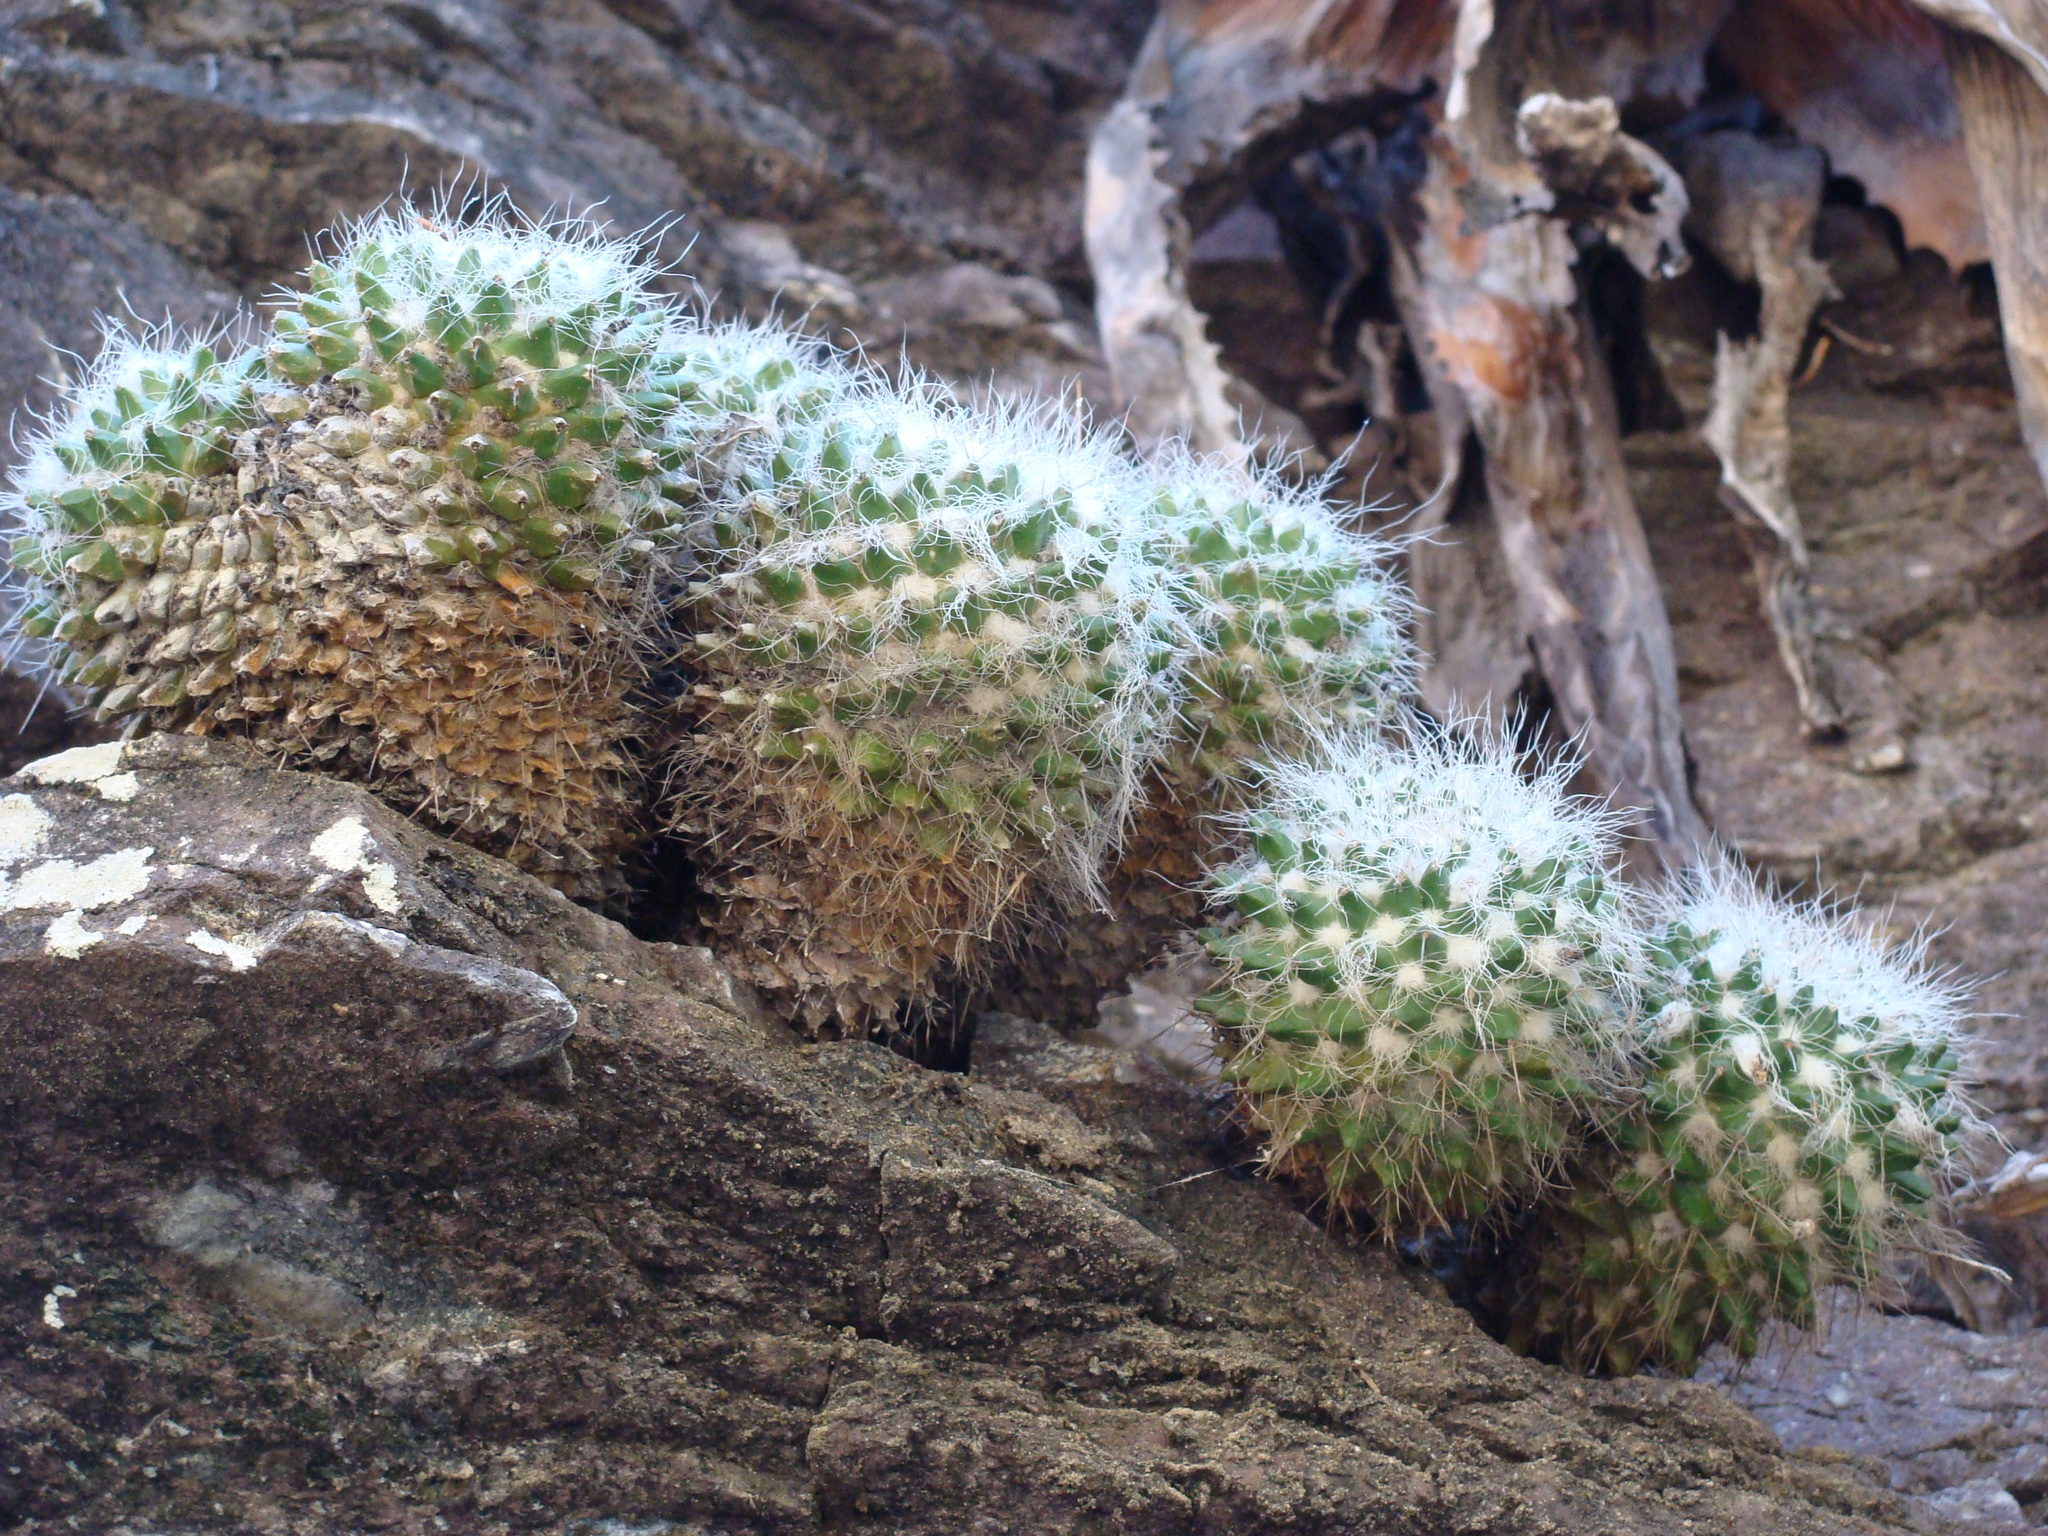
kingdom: Plantae
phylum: Tracheophyta
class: Magnoliopsida
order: Caryophyllales
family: Cactaceae
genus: Mammillaria
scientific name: Mammillaria karwinskiana
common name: Royal cross
